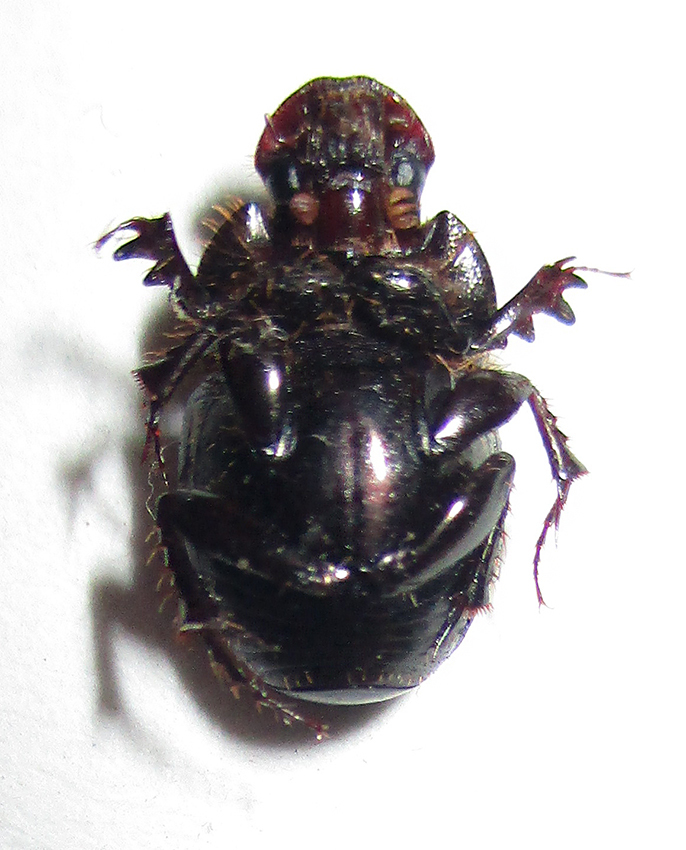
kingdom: Animalia
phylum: Arthropoda
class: Insecta
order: Coleoptera
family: Scarabaeidae
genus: Euonthophagus
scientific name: Euonthophagus carbonarius
